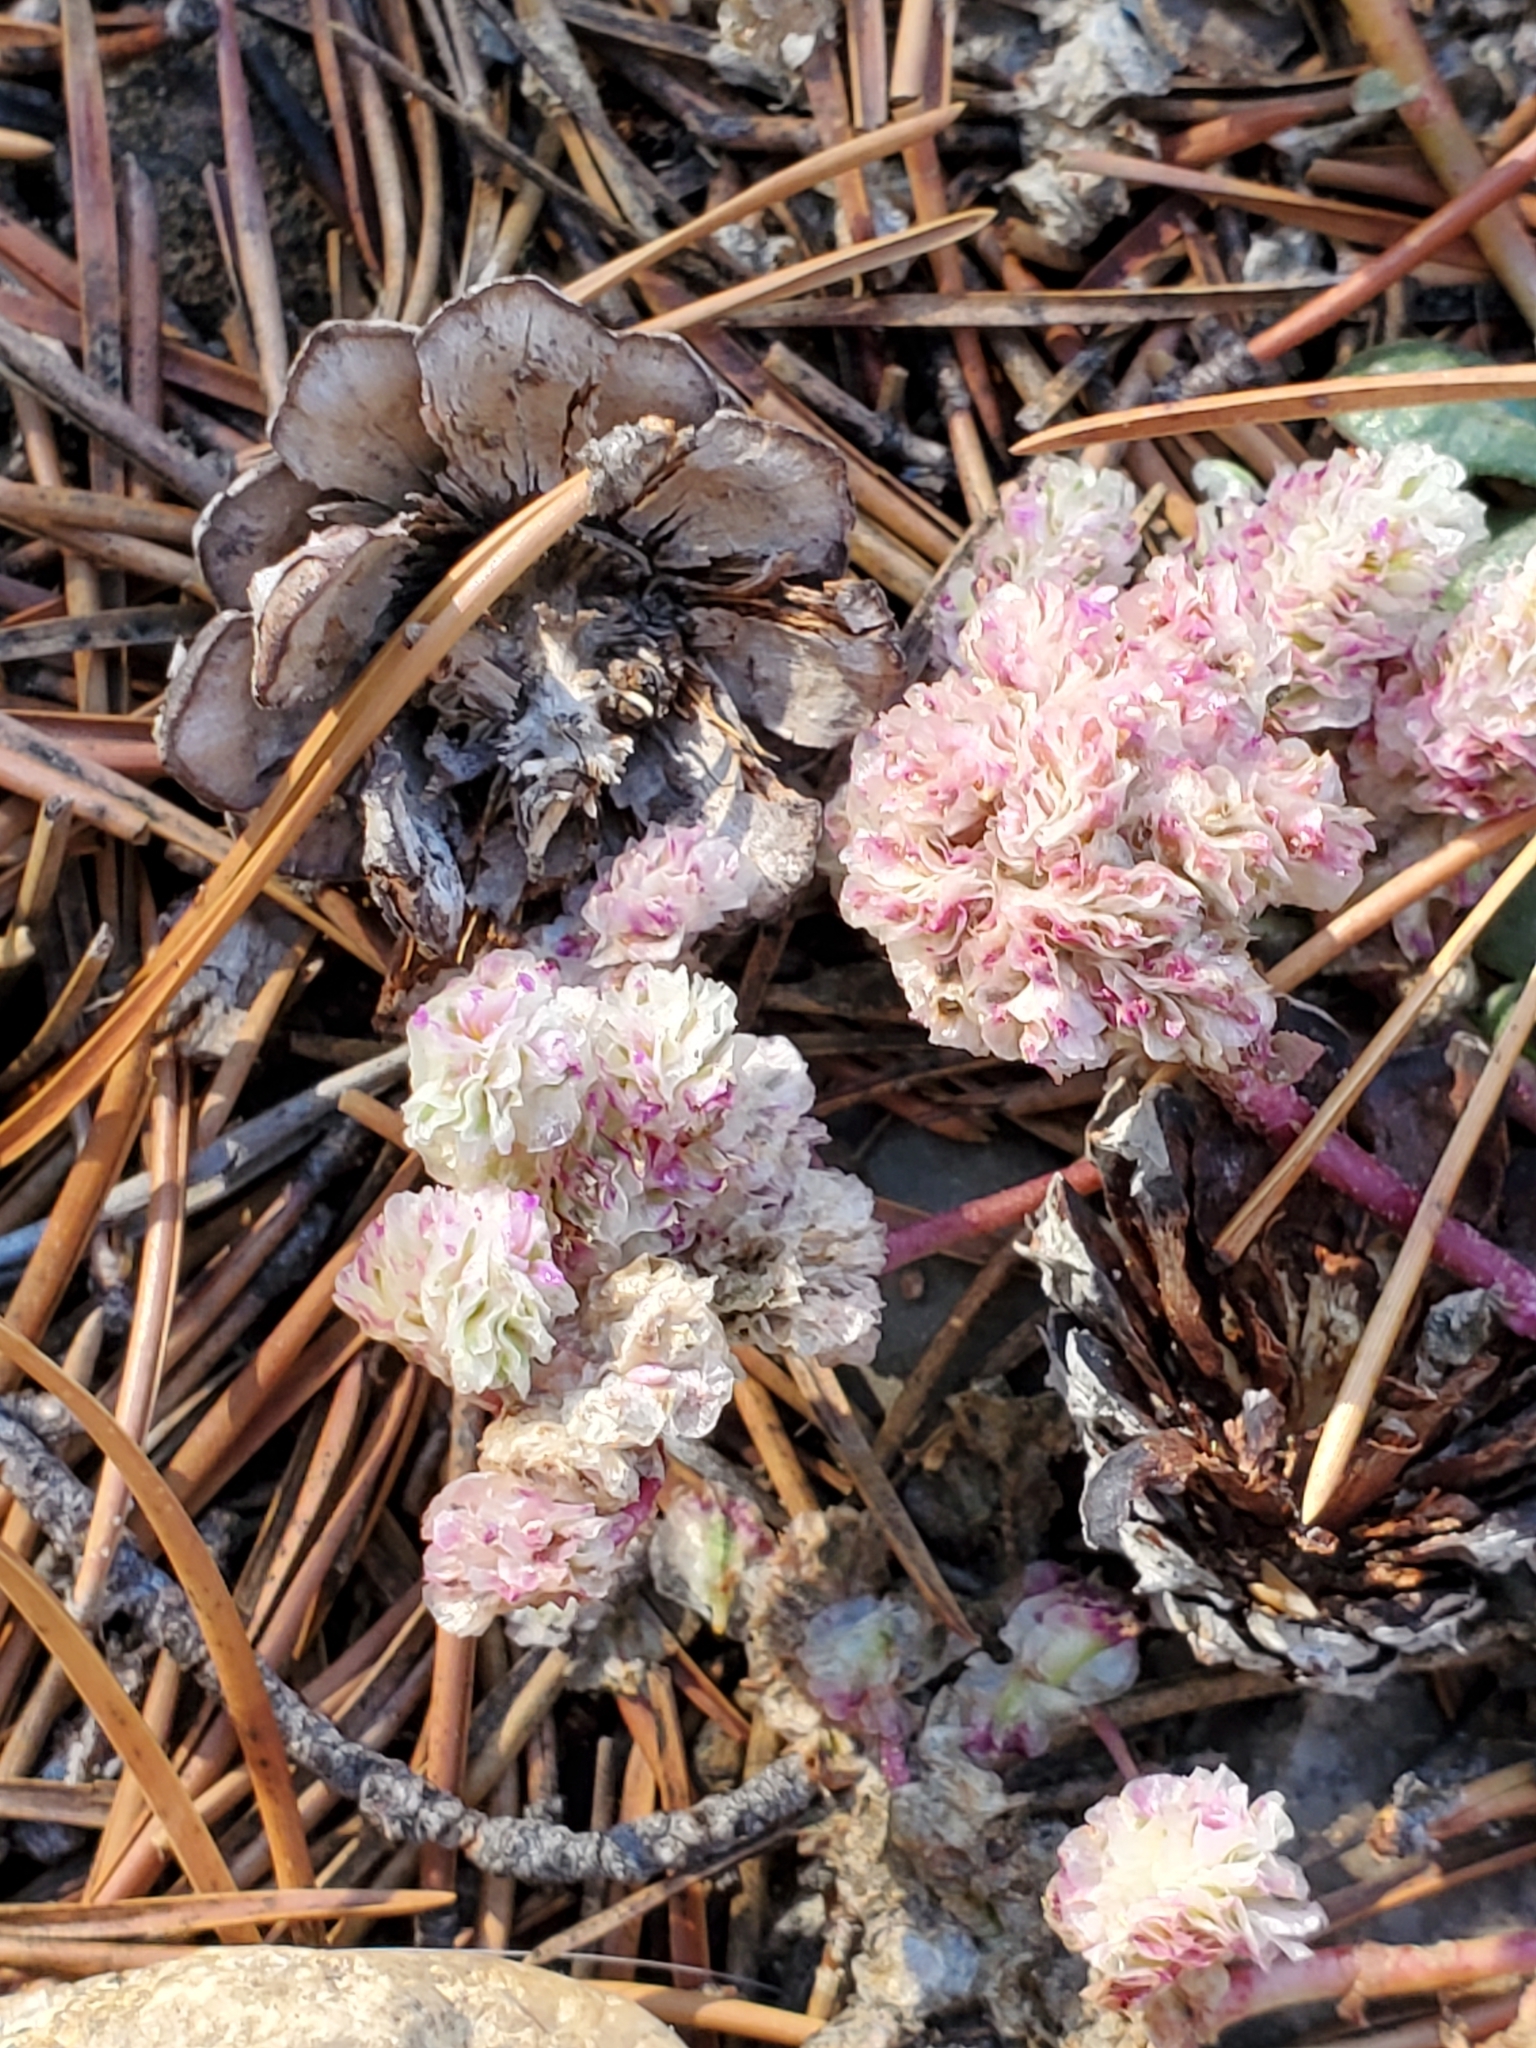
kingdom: Plantae
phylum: Tracheophyta
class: Magnoliopsida
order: Caryophyllales
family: Montiaceae
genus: Calyptridium
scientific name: Calyptridium monospermum
